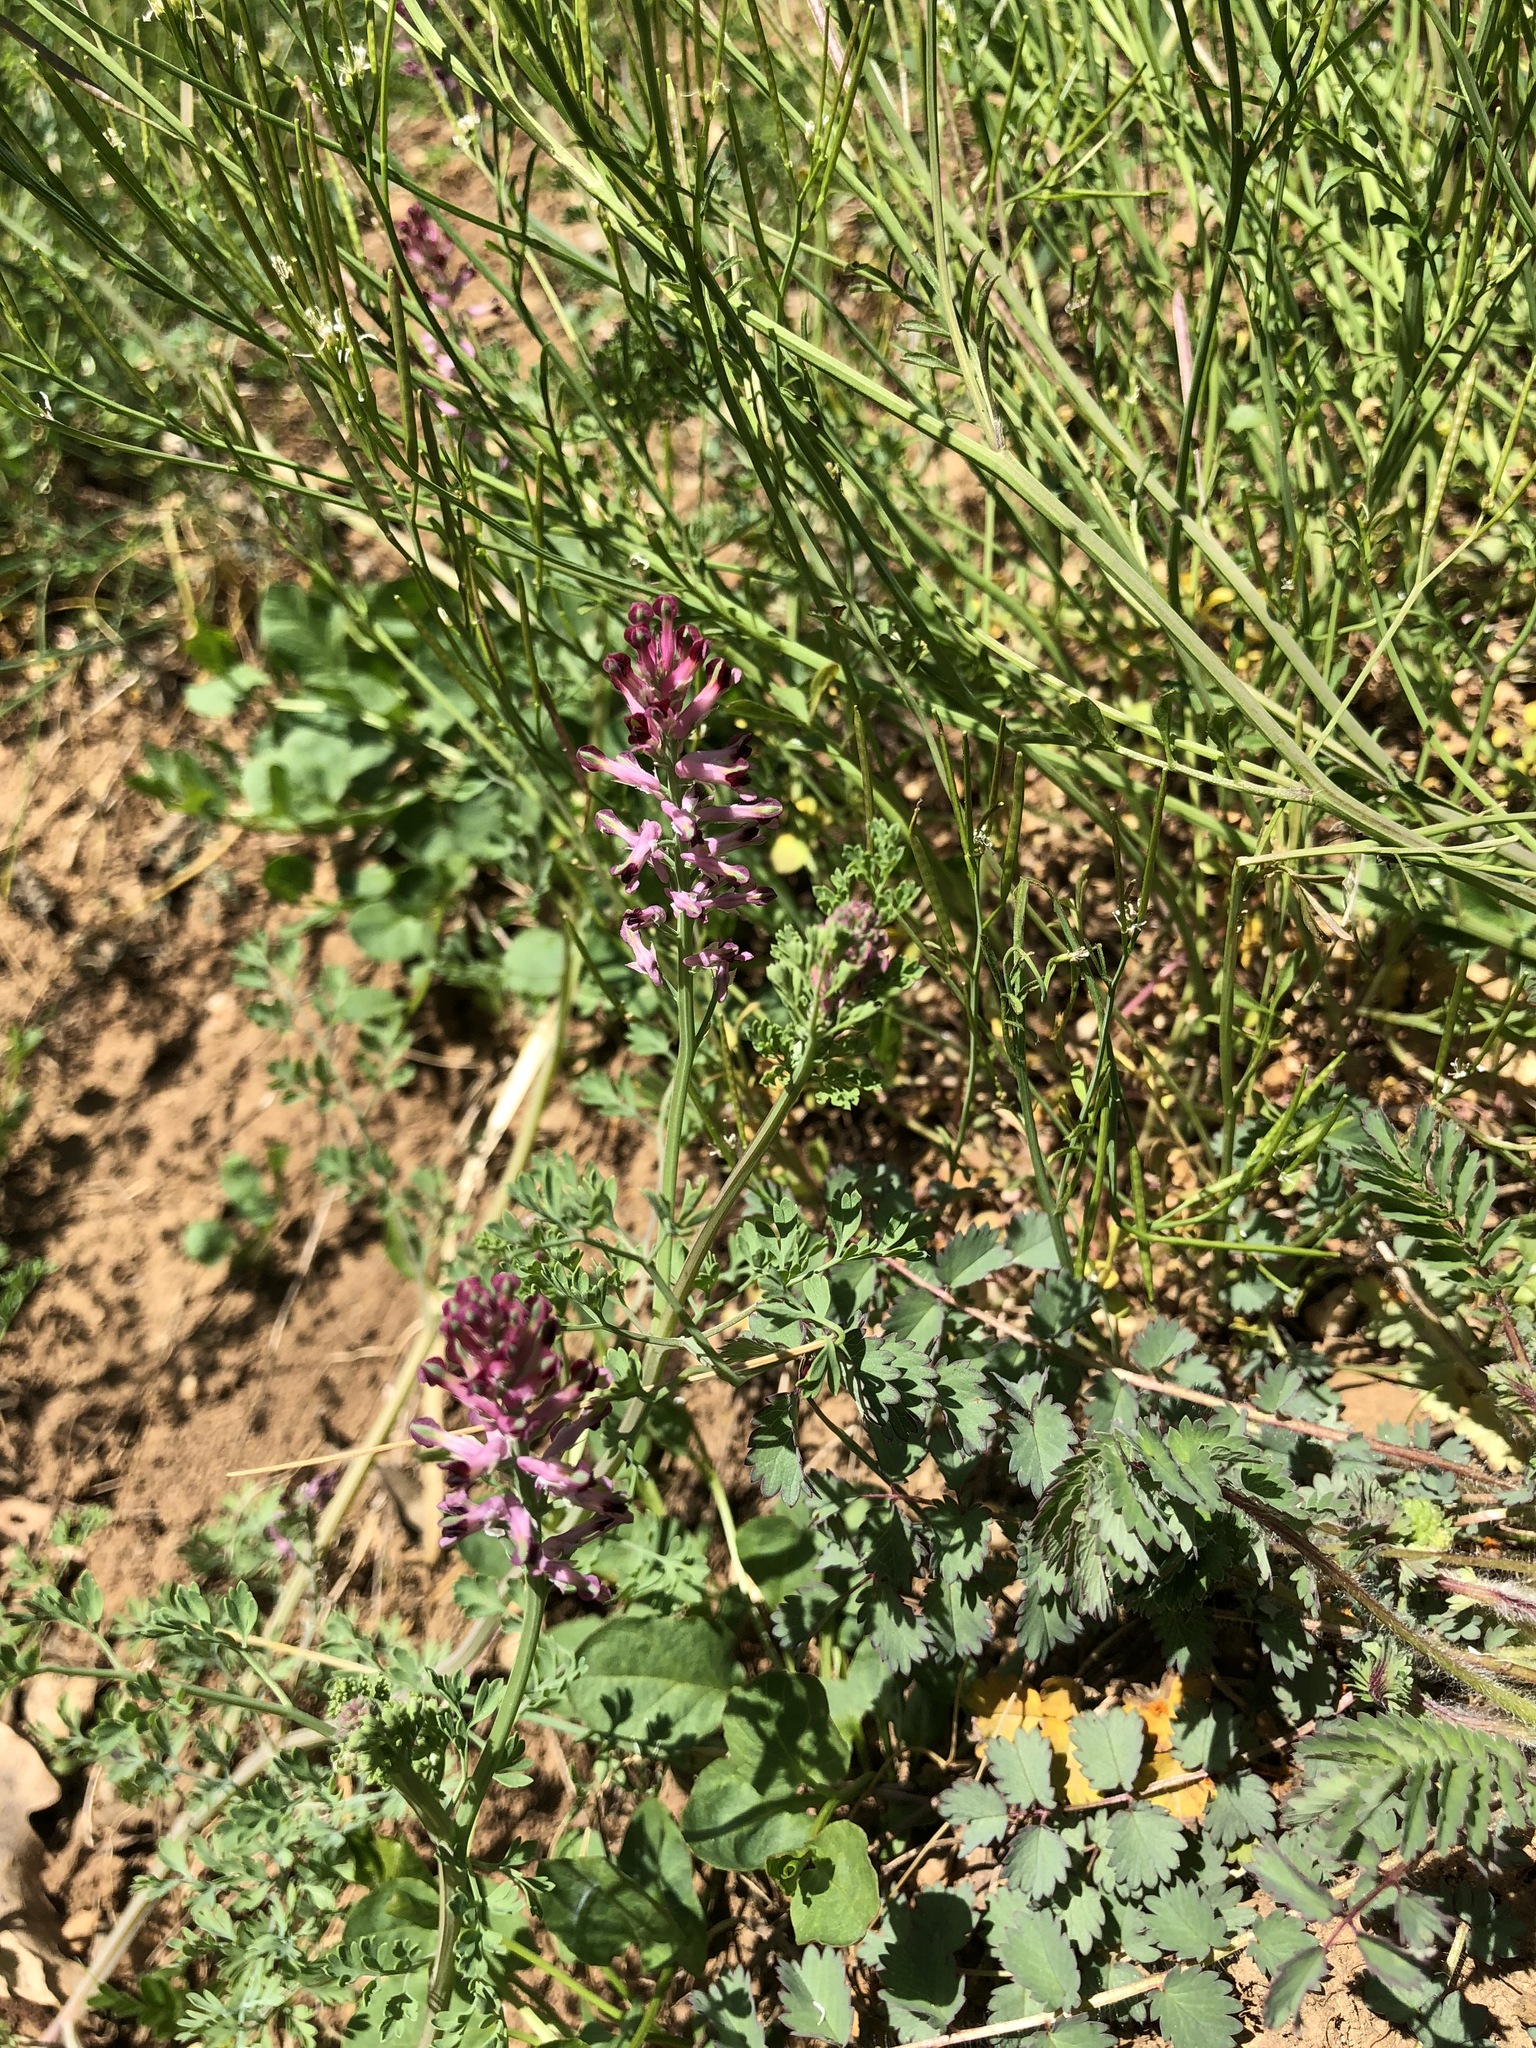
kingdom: Plantae
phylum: Tracheophyta
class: Magnoliopsida
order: Ranunculales
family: Papaveraceae
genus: Fumaria
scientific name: Fumaria officinalis
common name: Common fumitory
